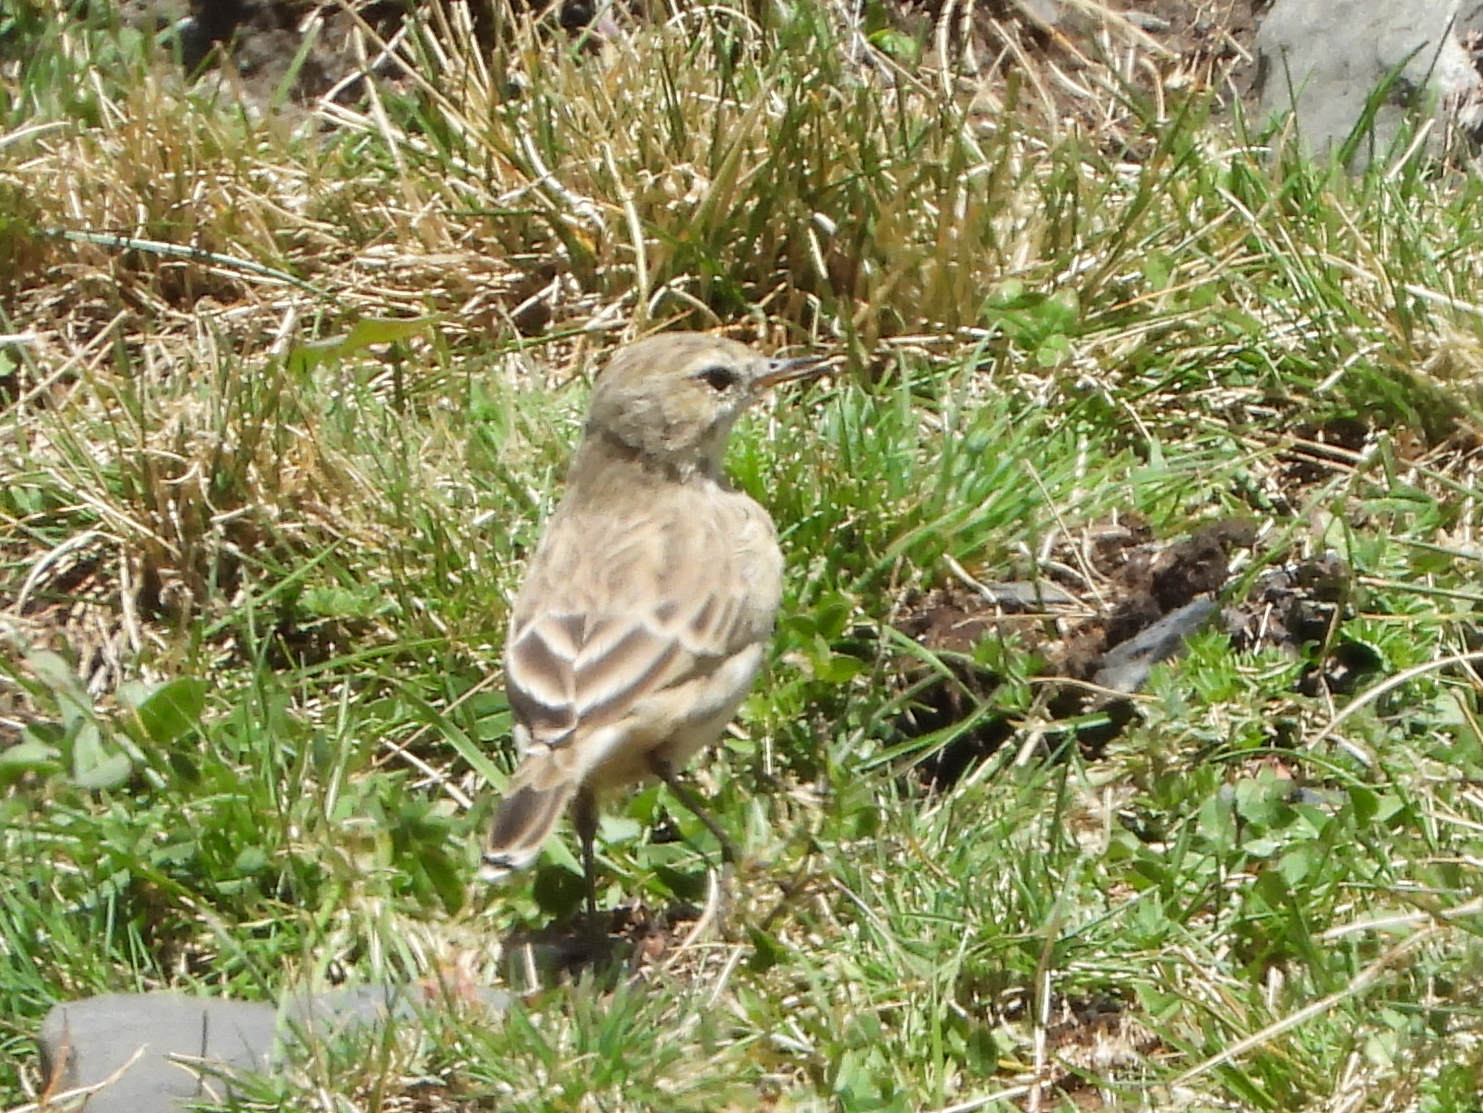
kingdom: Animalia
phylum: Chordata
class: Aves
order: Passeriformes
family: Motacillidae
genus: Anthus
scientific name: Anthus spinoletta
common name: Water pipit
